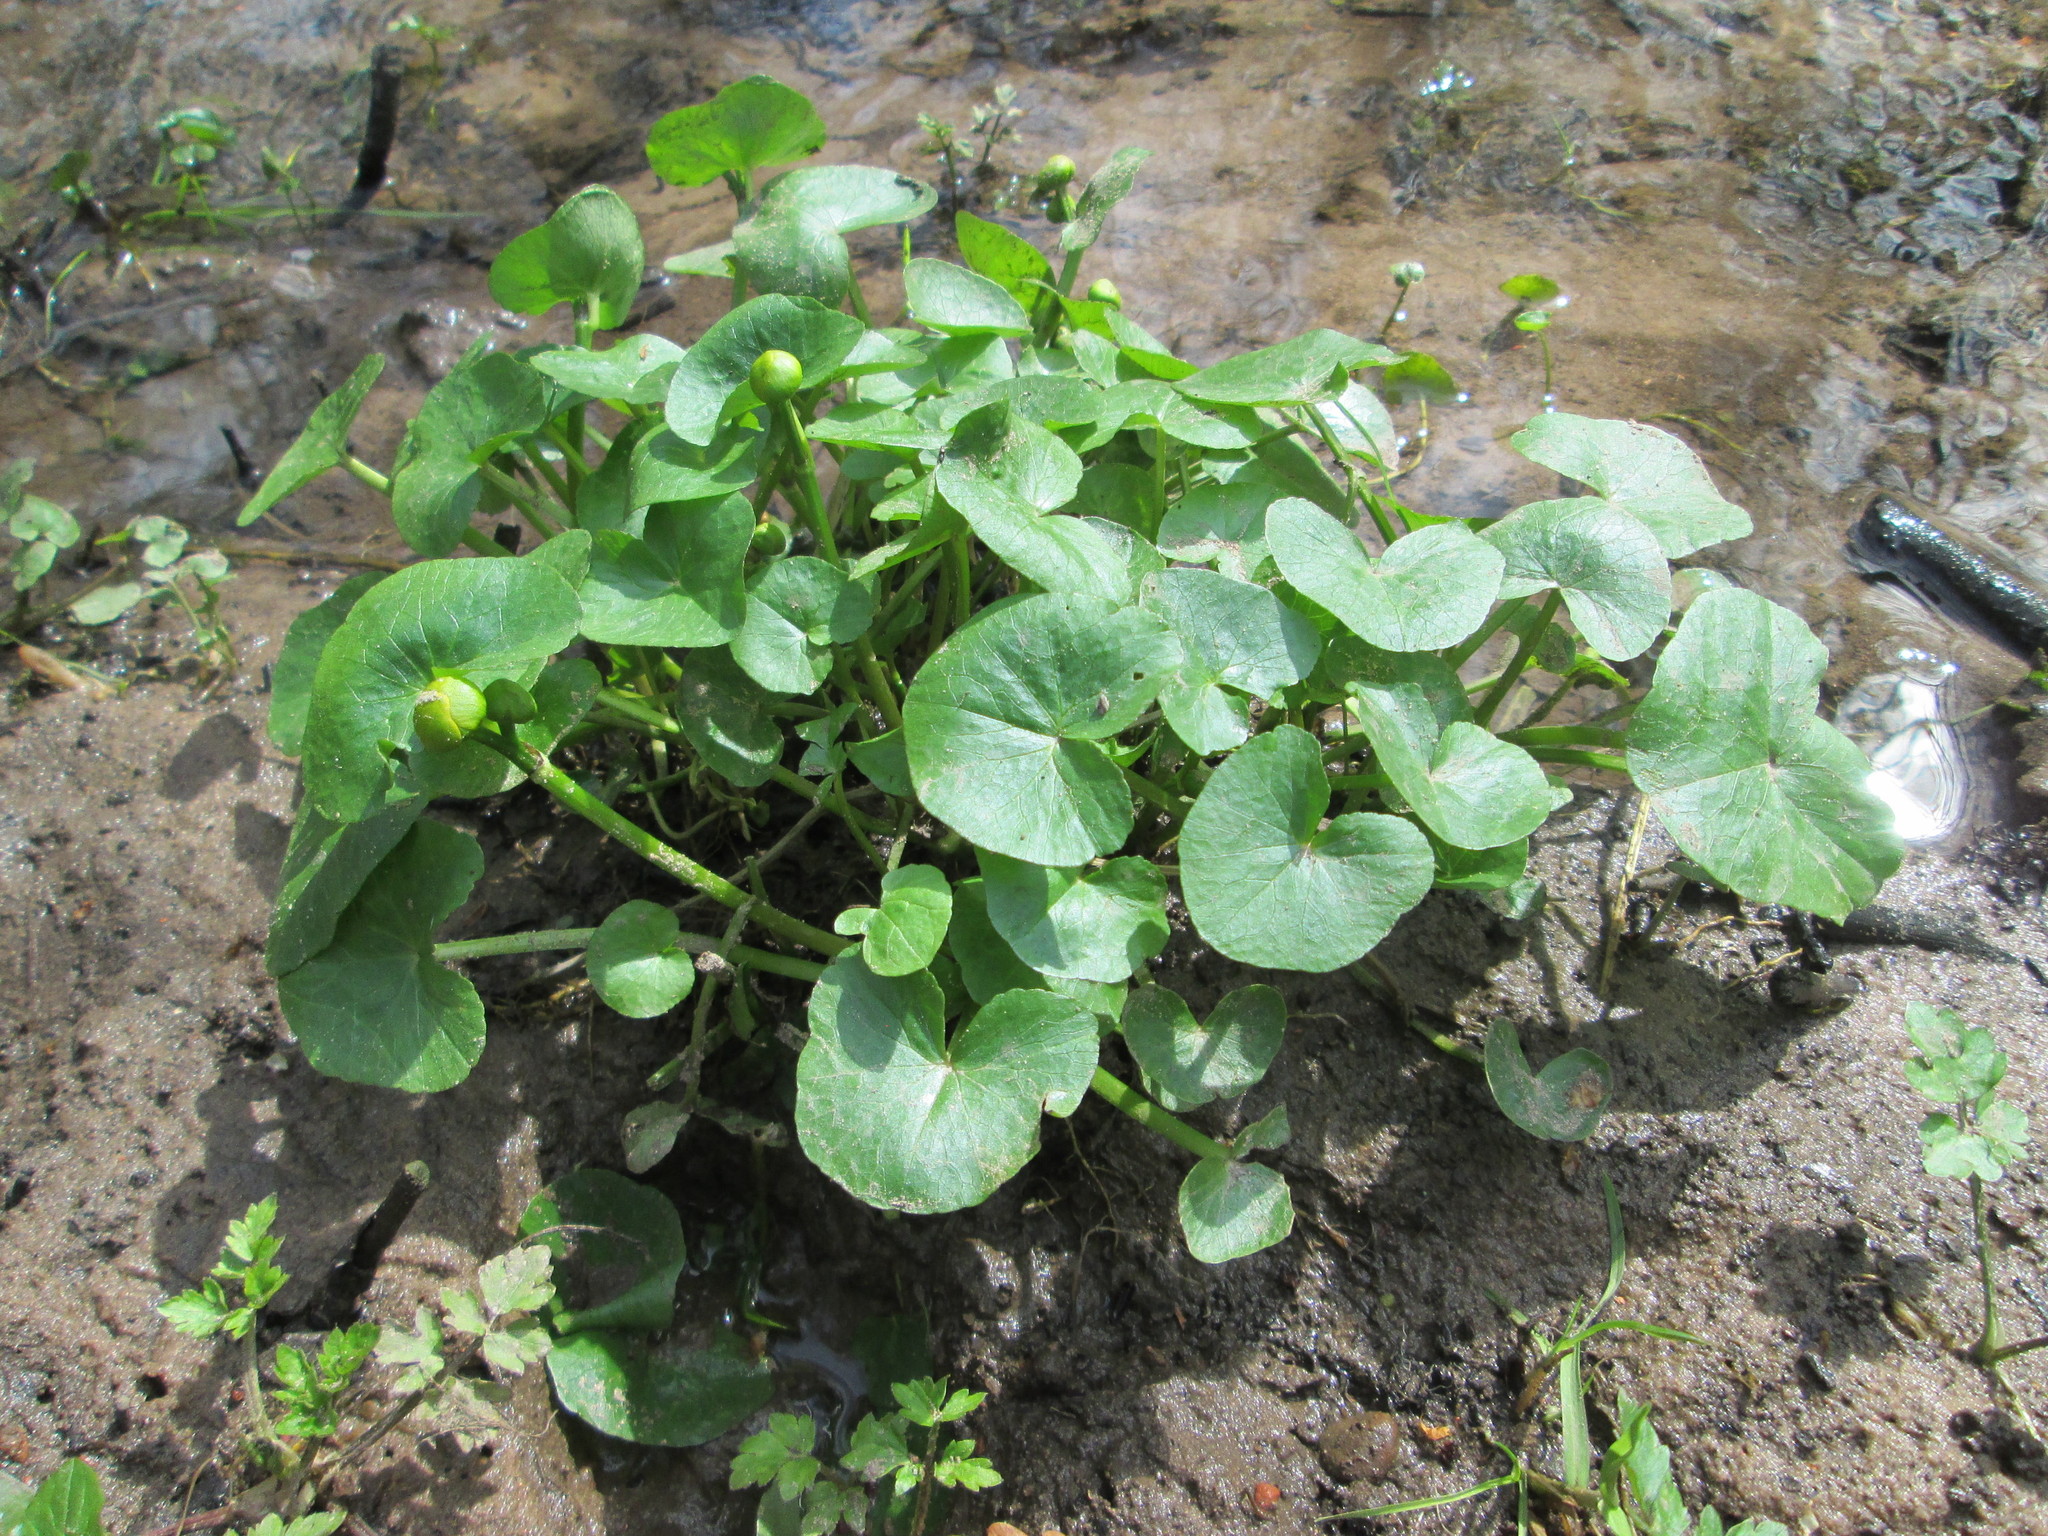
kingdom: Plantae
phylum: Tracheophyta
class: Magnoliopsida
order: Ranunculales
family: Ranunculaceae
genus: Caltha
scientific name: Caltha palustris
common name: Marsh marigold
